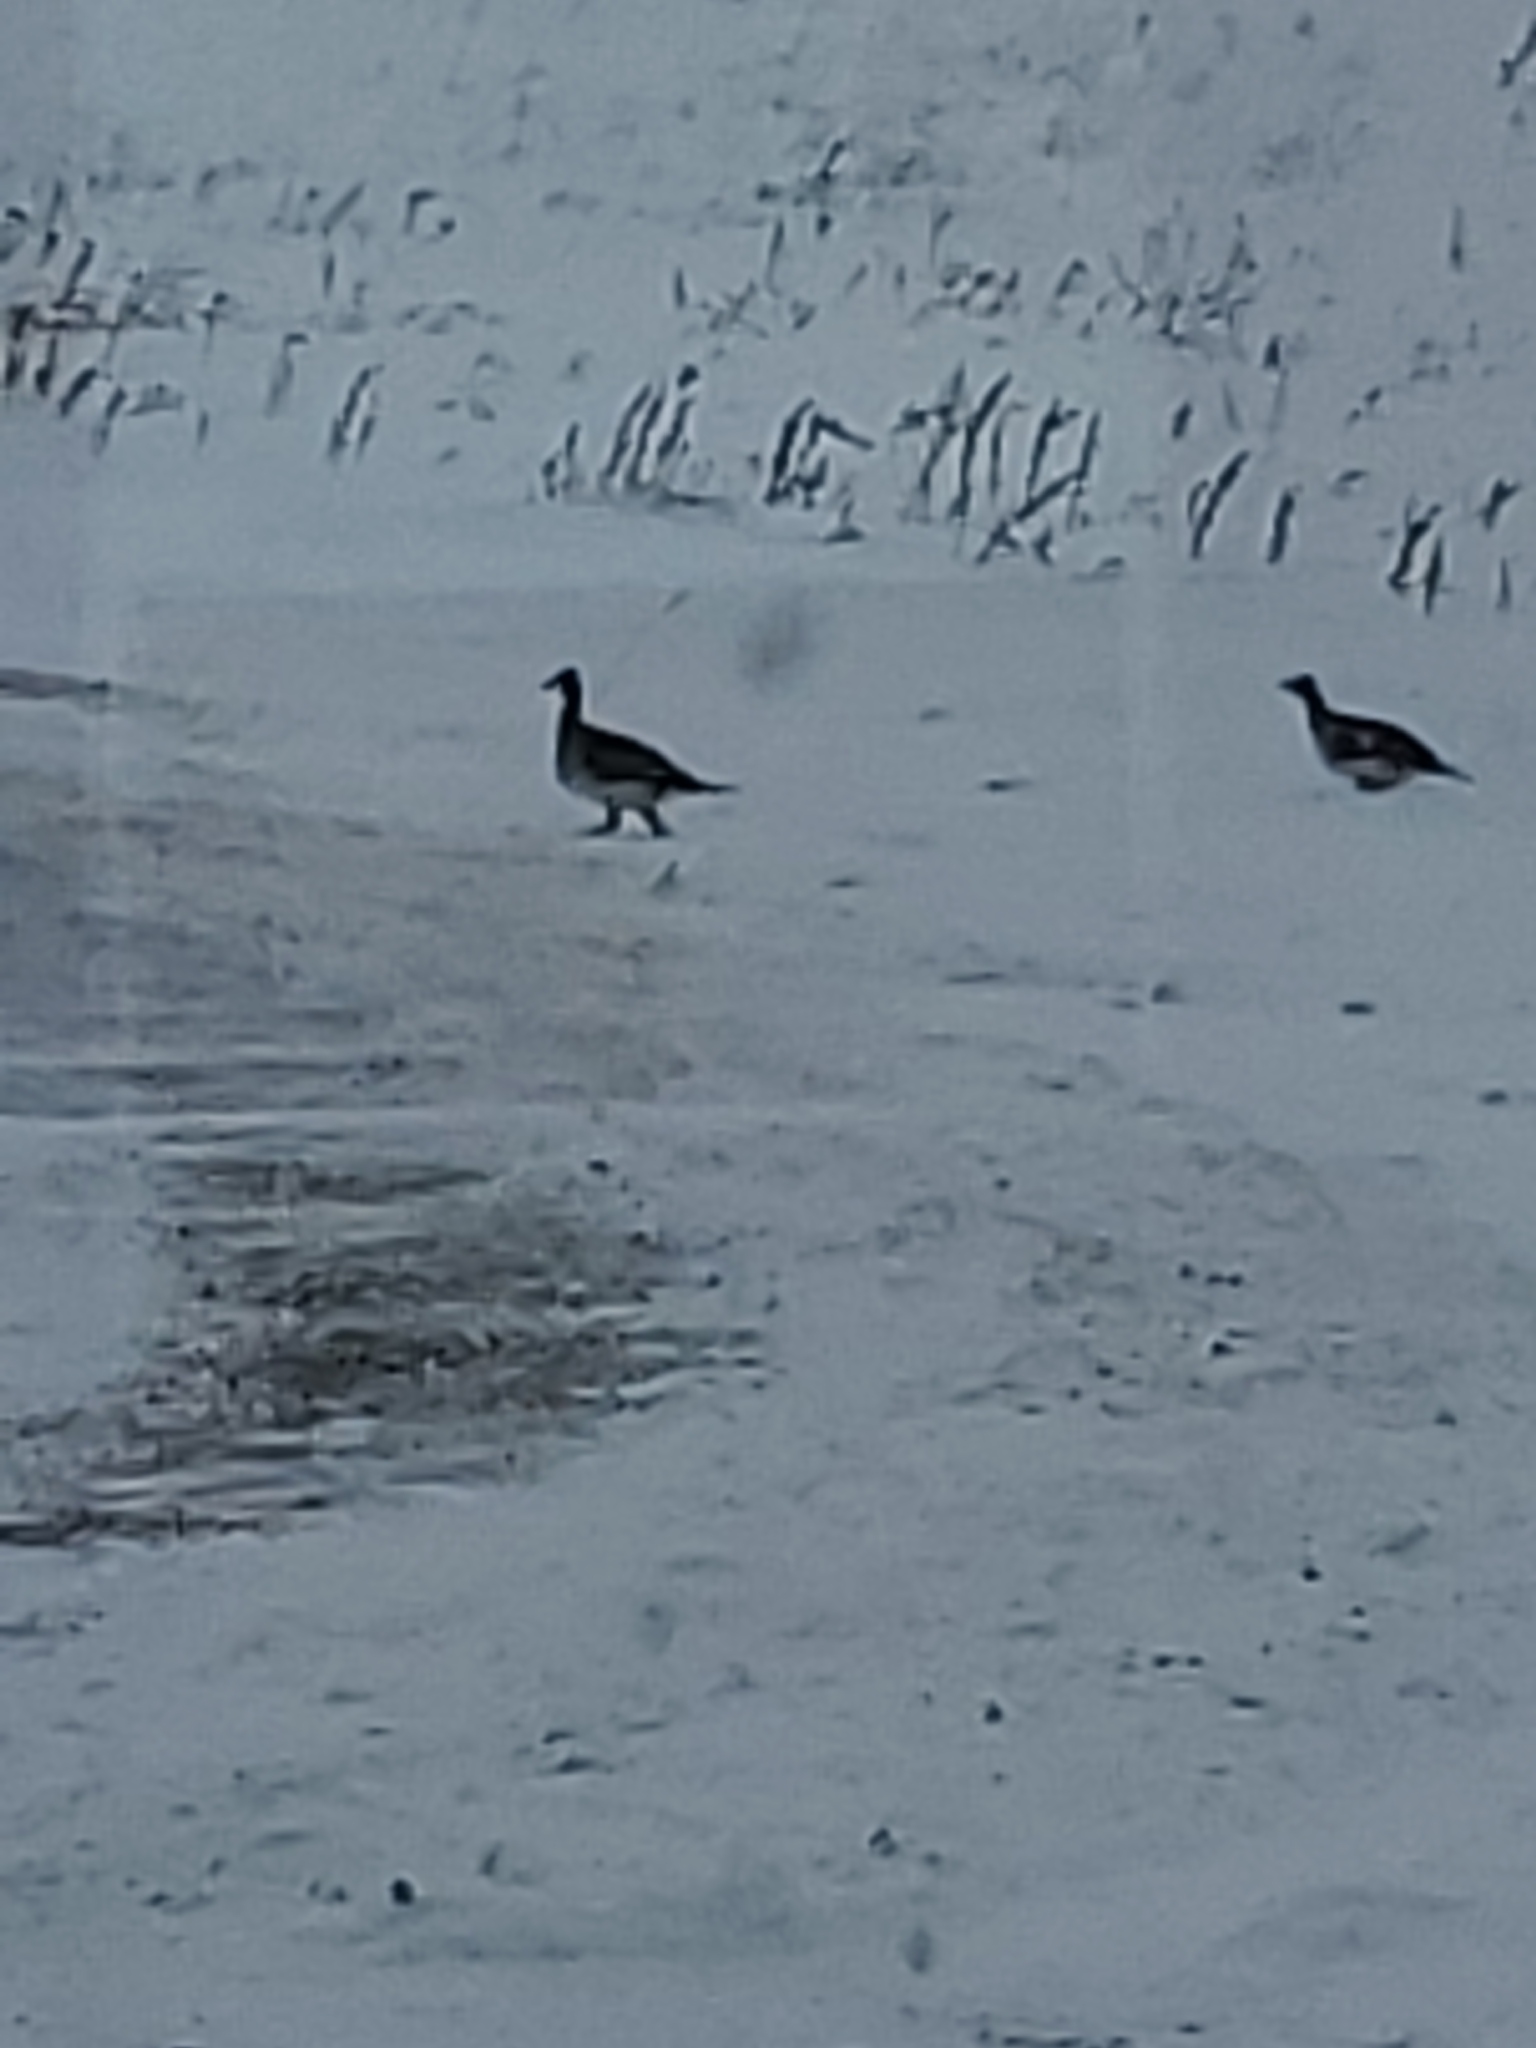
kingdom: Animalia
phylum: Chordata
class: Aves
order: Galliformes
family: Phasianidae
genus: Tympanuchus
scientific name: Tympanuchus phasianellus
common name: Sharp-tailed grouse
